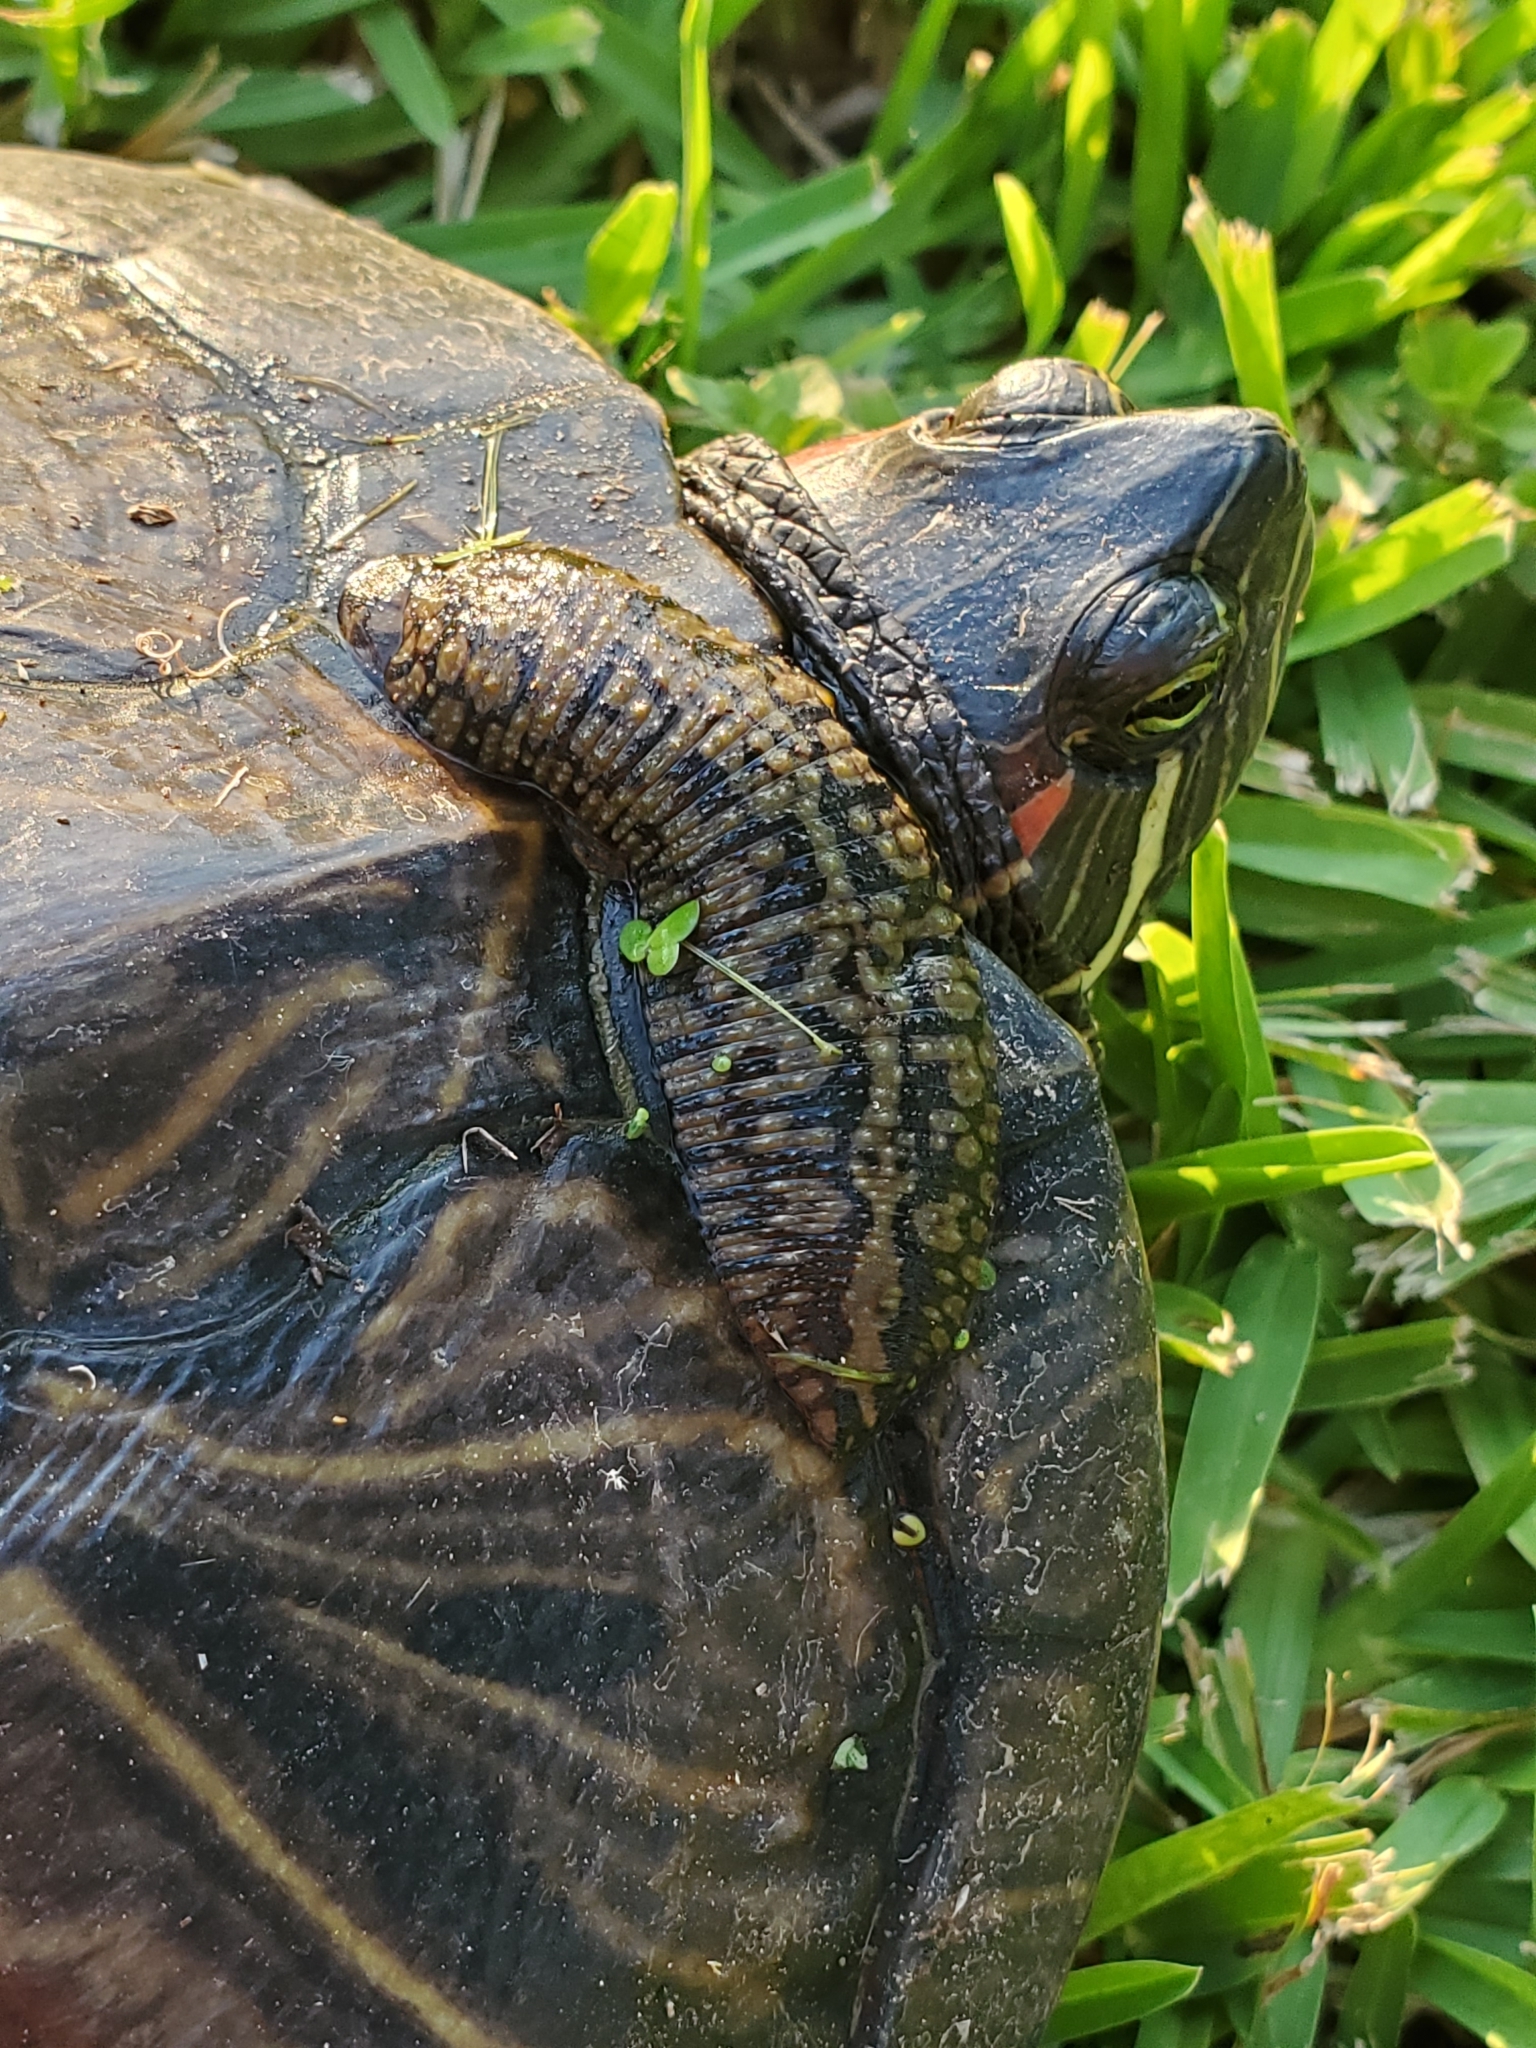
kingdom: Animalia
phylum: Annelida
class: Clitellata
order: Rhynchobdellida
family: Glossiphoniidae
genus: Placobdella
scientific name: Placobdella parasitica
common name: Smooth turtle leech
